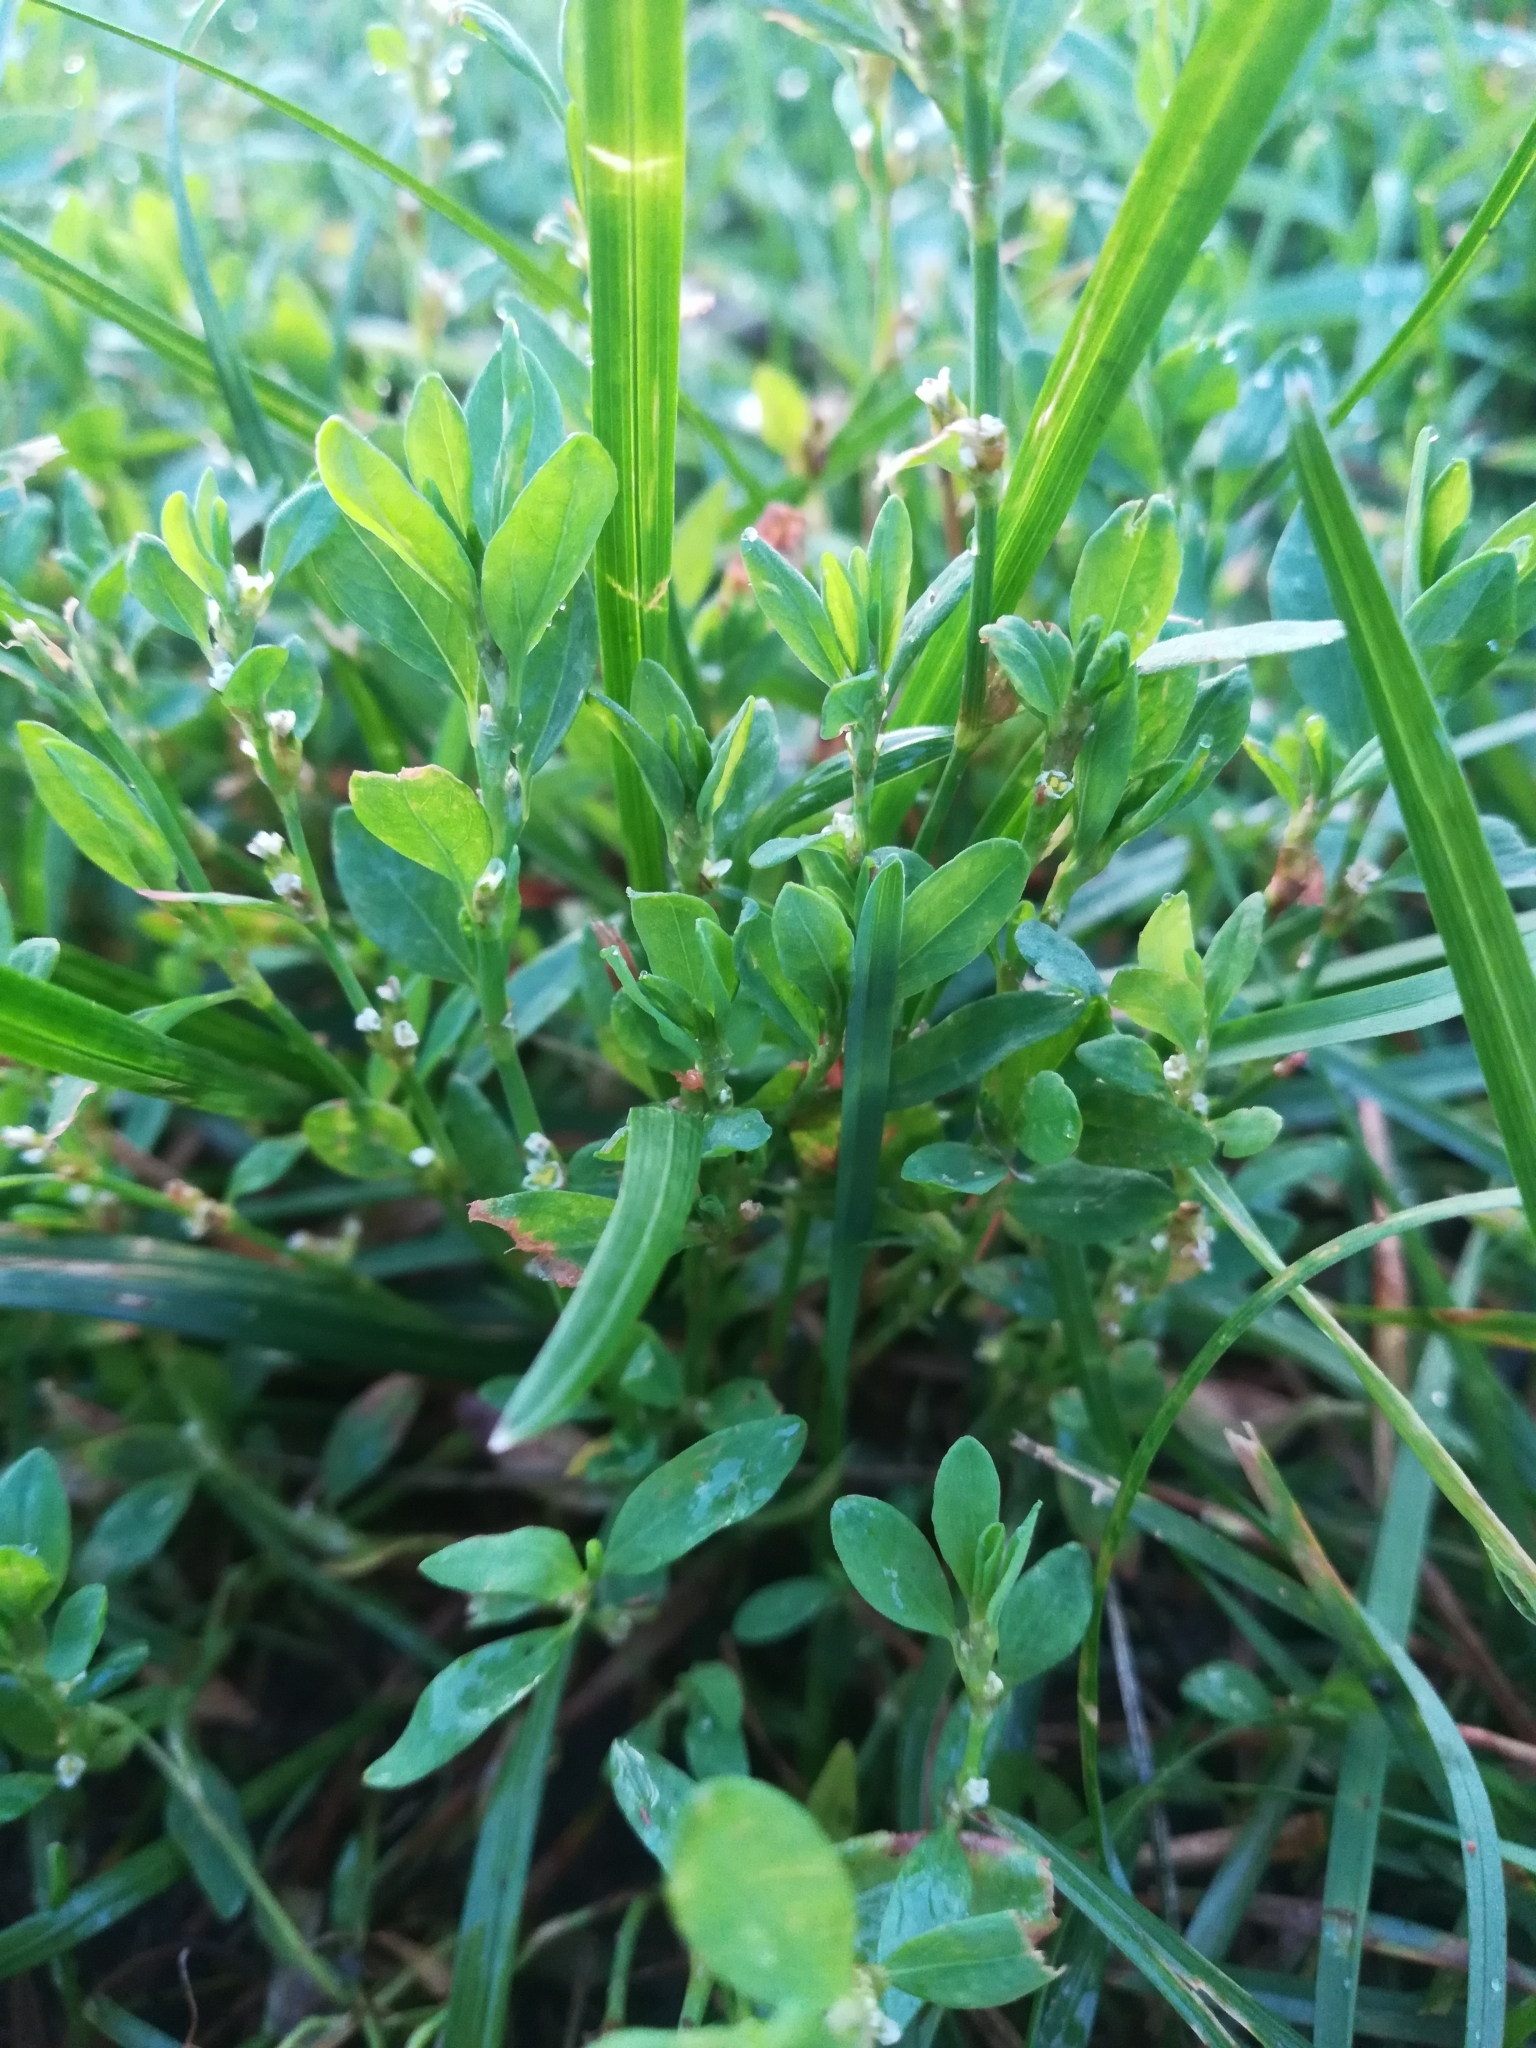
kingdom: Plantae
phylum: Tracheophyta
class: Magnoliopsida
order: Caryophyllales
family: Polygonaceae
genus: Polygonum
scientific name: Polygonum
